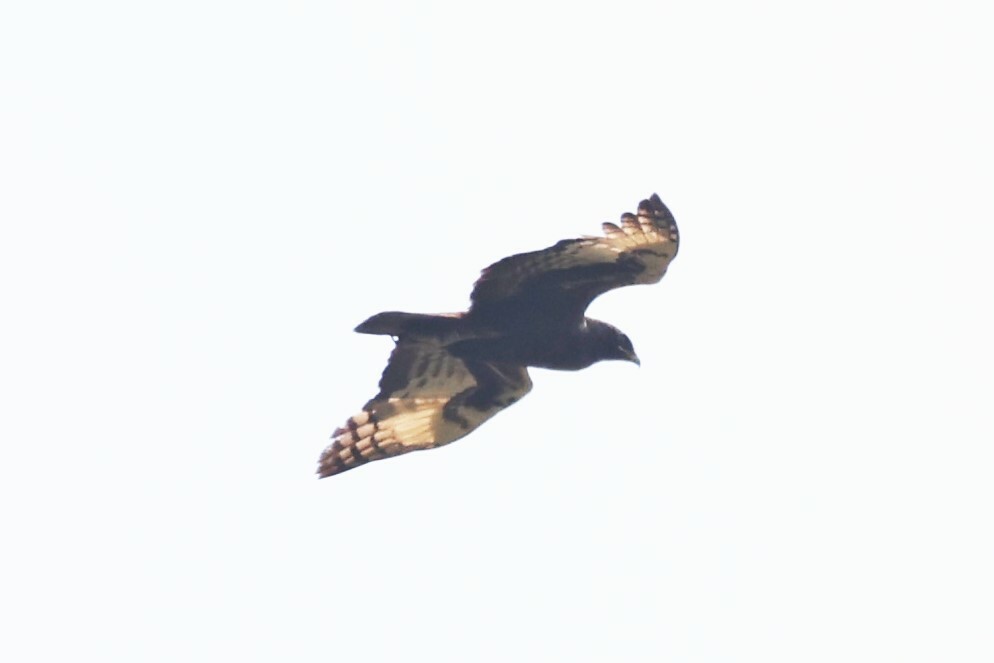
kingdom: Animalia
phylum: Chordata
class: Aves
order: Accipitriformes
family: Accipitridae
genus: Lophaetus
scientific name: Lophaetus occipitalis
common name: Long-crested eagle
